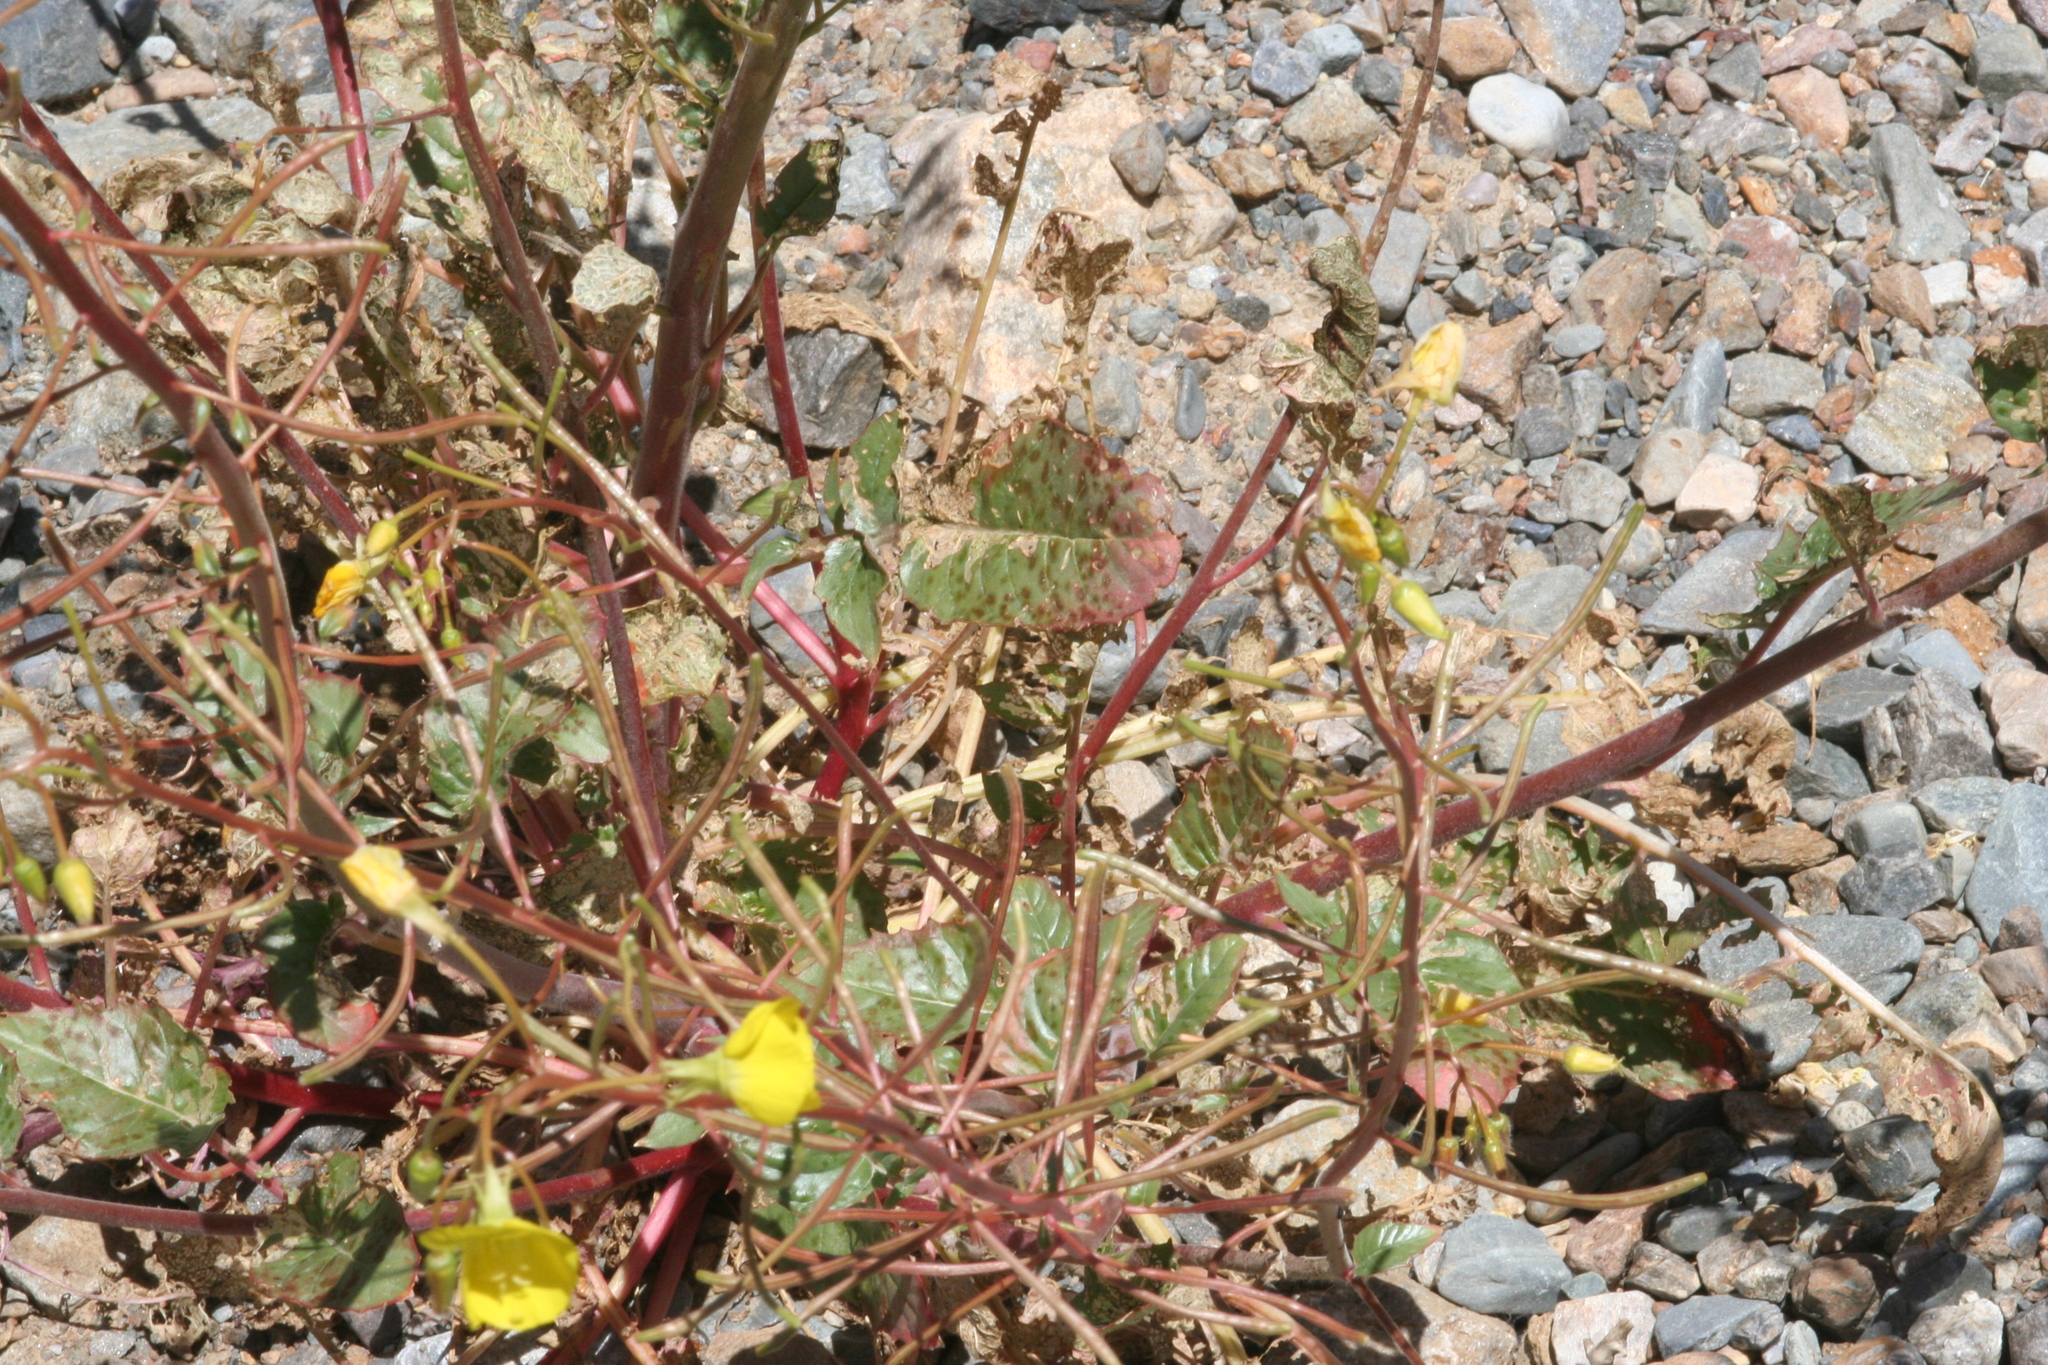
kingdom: Plantae
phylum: Tracheophyta
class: Magnoliopsida
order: Myrtales
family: Onagraceae
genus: Chylismia
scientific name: Chylismia brevipes
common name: Yellow cups
